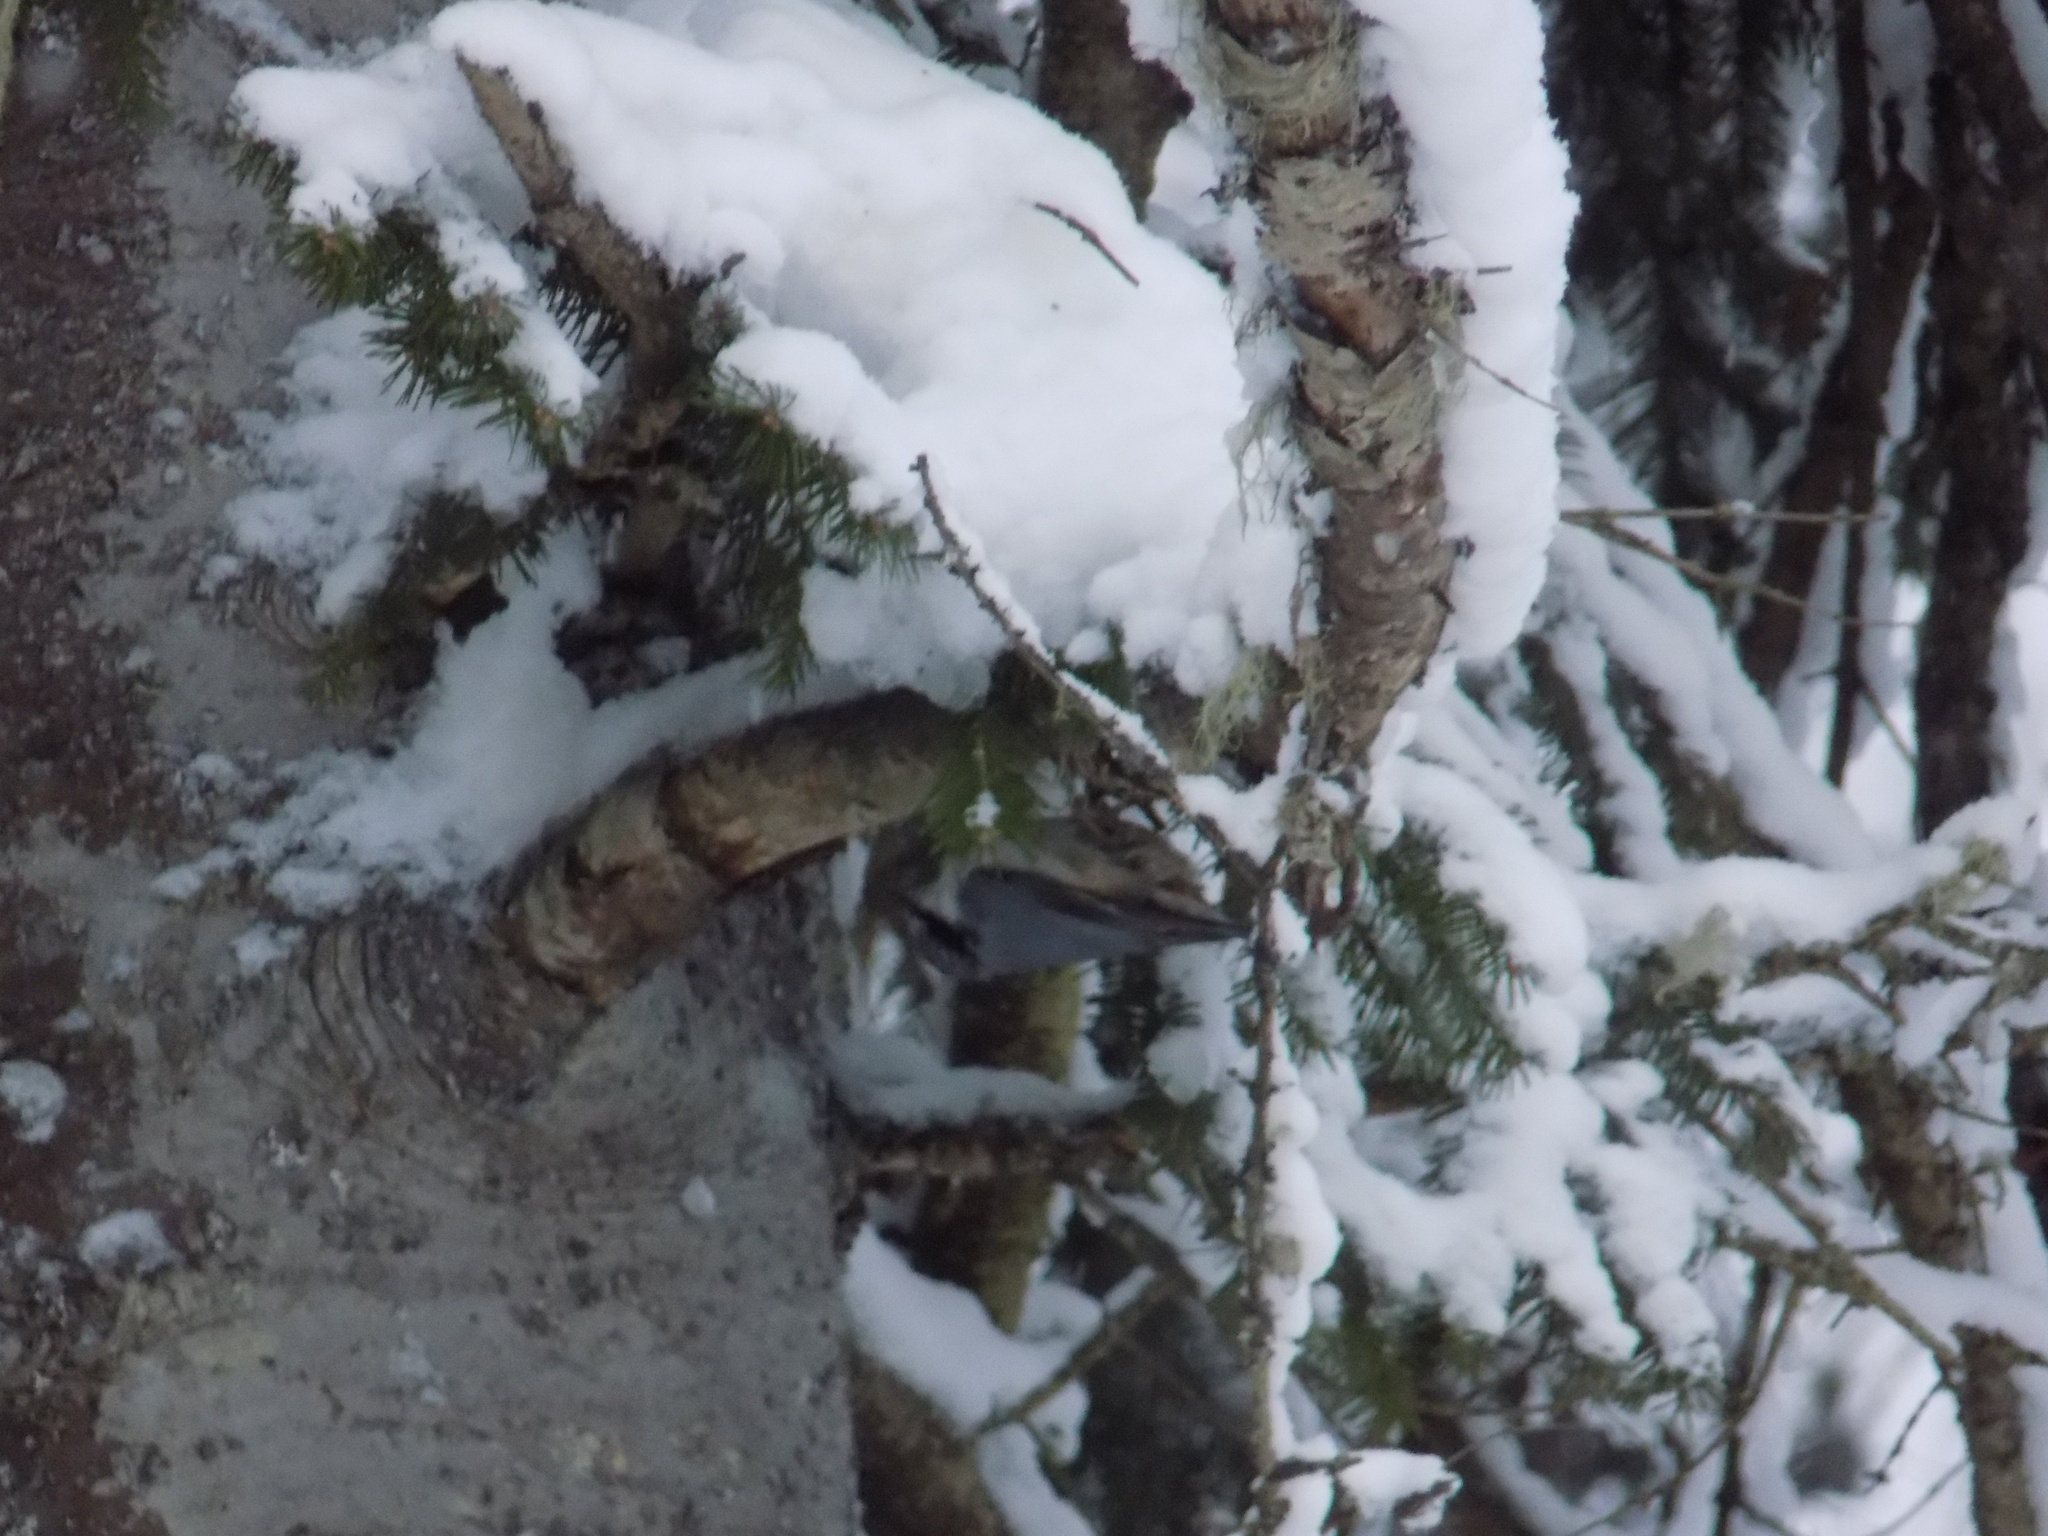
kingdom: Animalia
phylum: Chordata
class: Aves
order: Passeriformes
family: Sittidae
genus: Sitta
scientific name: Sitta europaea
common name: Eurasian nuthatch
